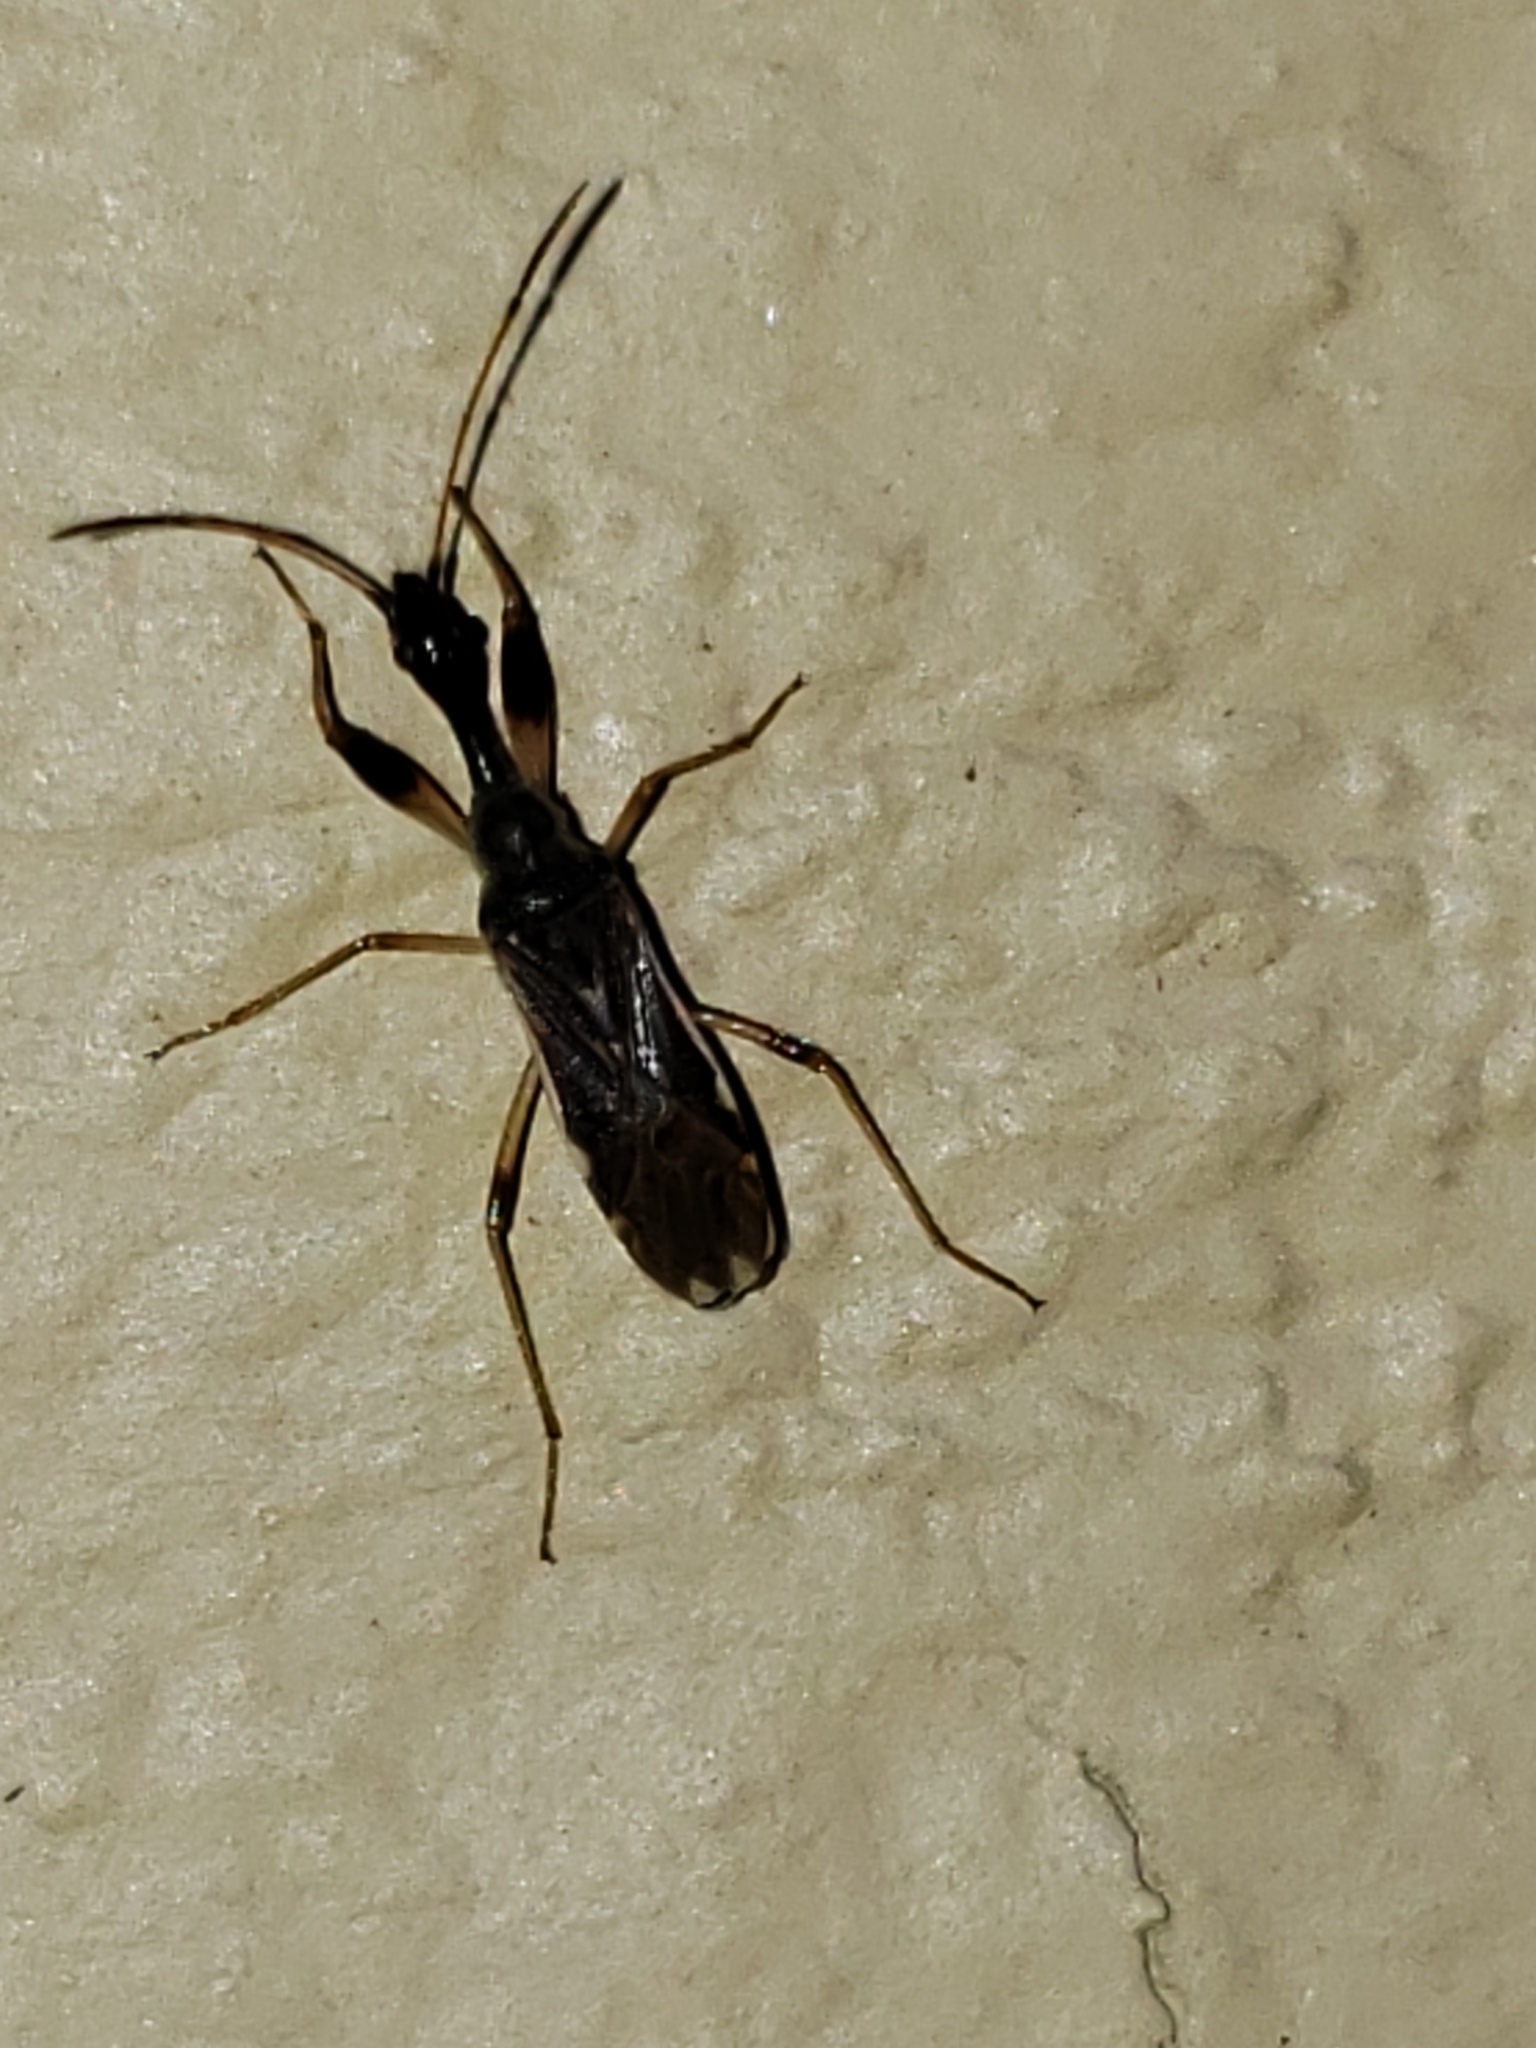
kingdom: Animalia
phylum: Arthropoda
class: Insecta
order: Hemiptera
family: Rhyparochromidae
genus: Myodocha
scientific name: Myodocha serripes
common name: Long-necked seed bug
